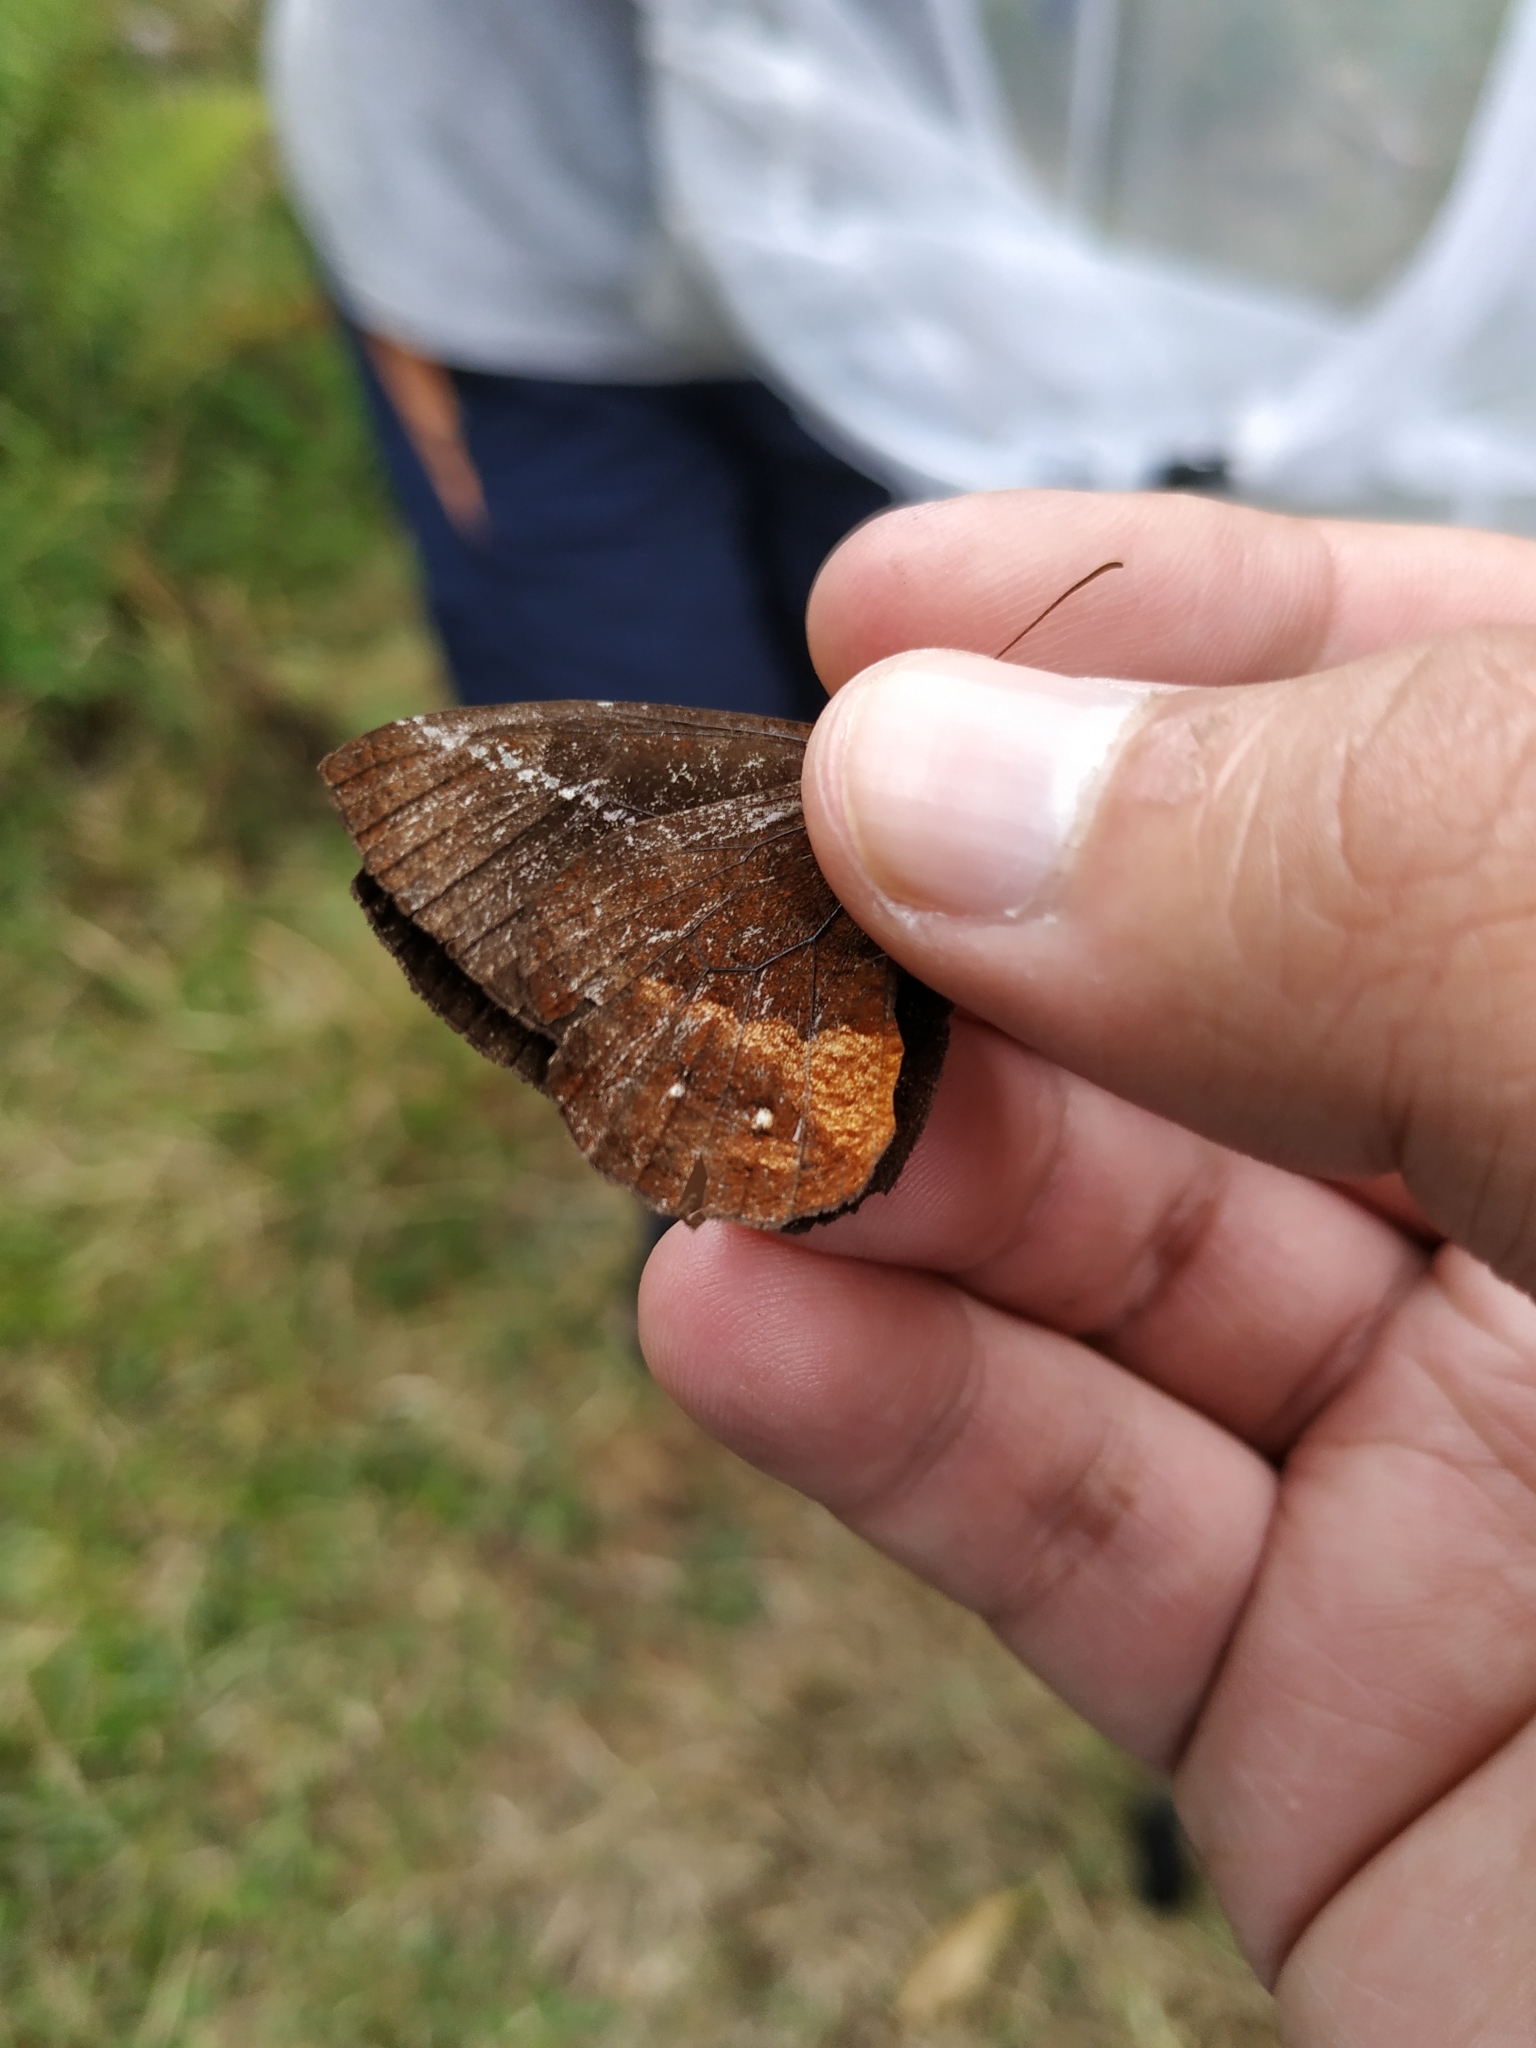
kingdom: Animalia
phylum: Arthropoda
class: Insecta
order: Lepidoptera
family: Nymphalidae
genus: Pedaliodes
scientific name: Pedaliodes polusca
